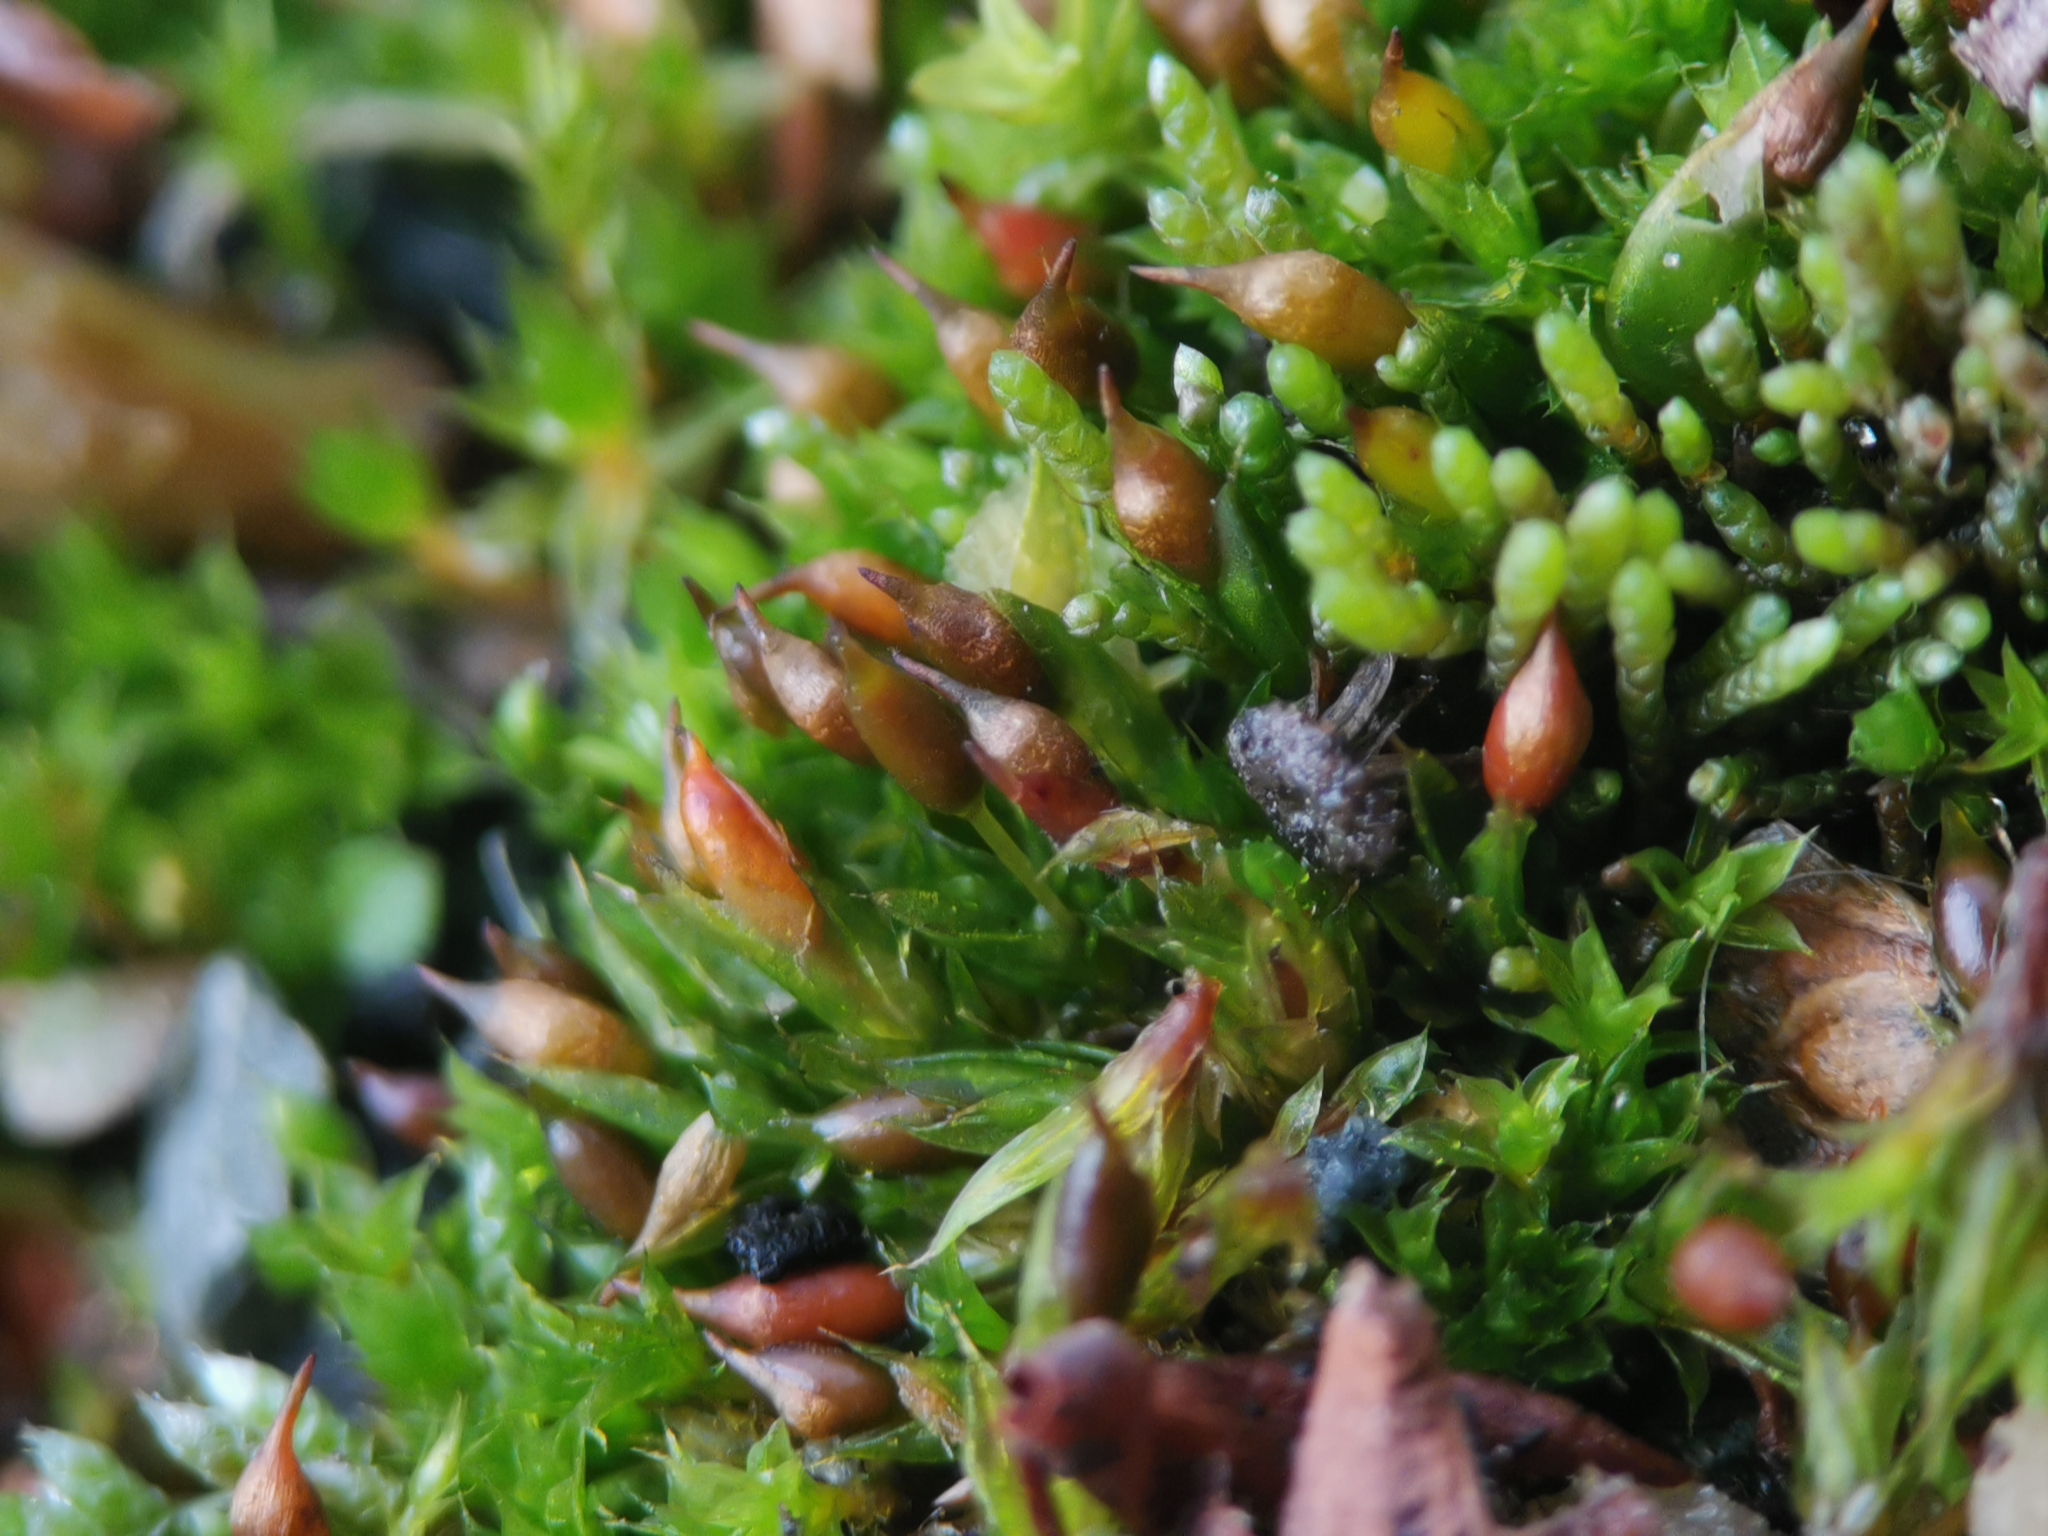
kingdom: Plantae
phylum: Bryophyta
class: Bryopsida
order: Pottiales
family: Pottiaceae
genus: Tortula
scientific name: Tortula protobryoides
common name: Tall pottia
